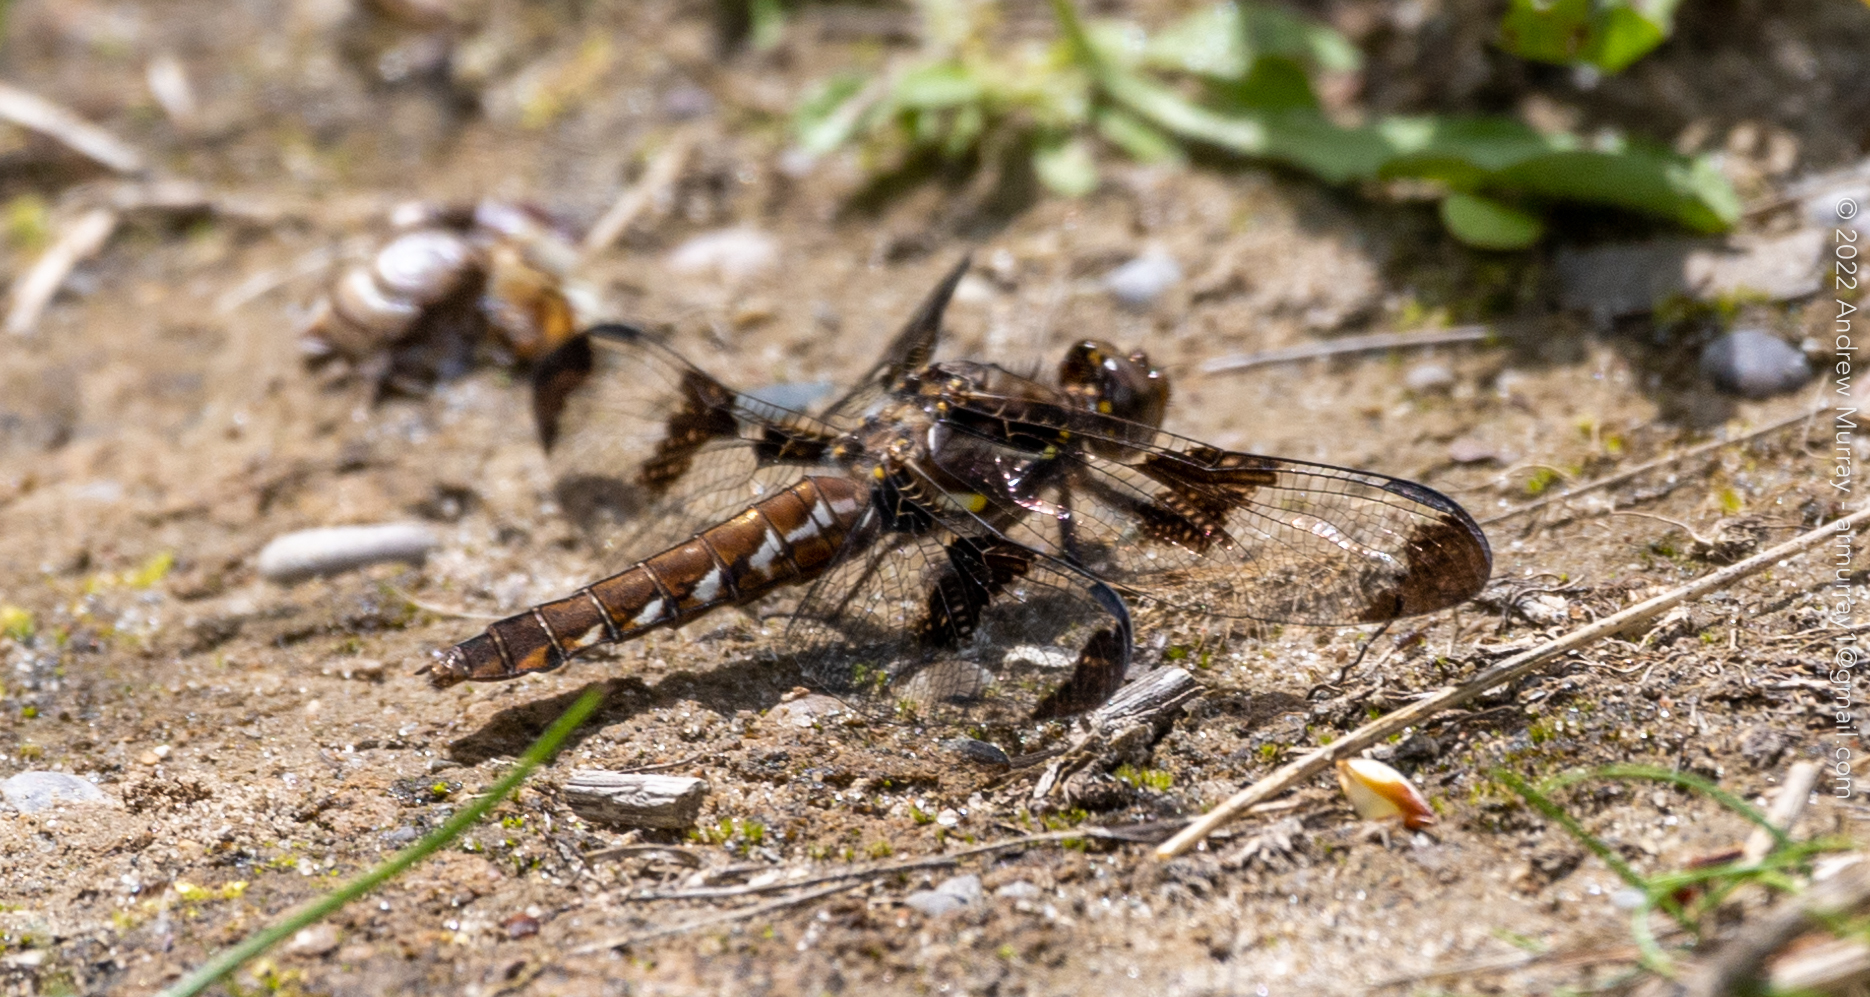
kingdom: Animalia
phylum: Arthropoda
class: Insecta
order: Odonata
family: Libellulidae
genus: Plathemis
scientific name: Plathemis lydia
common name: Common whitetail
